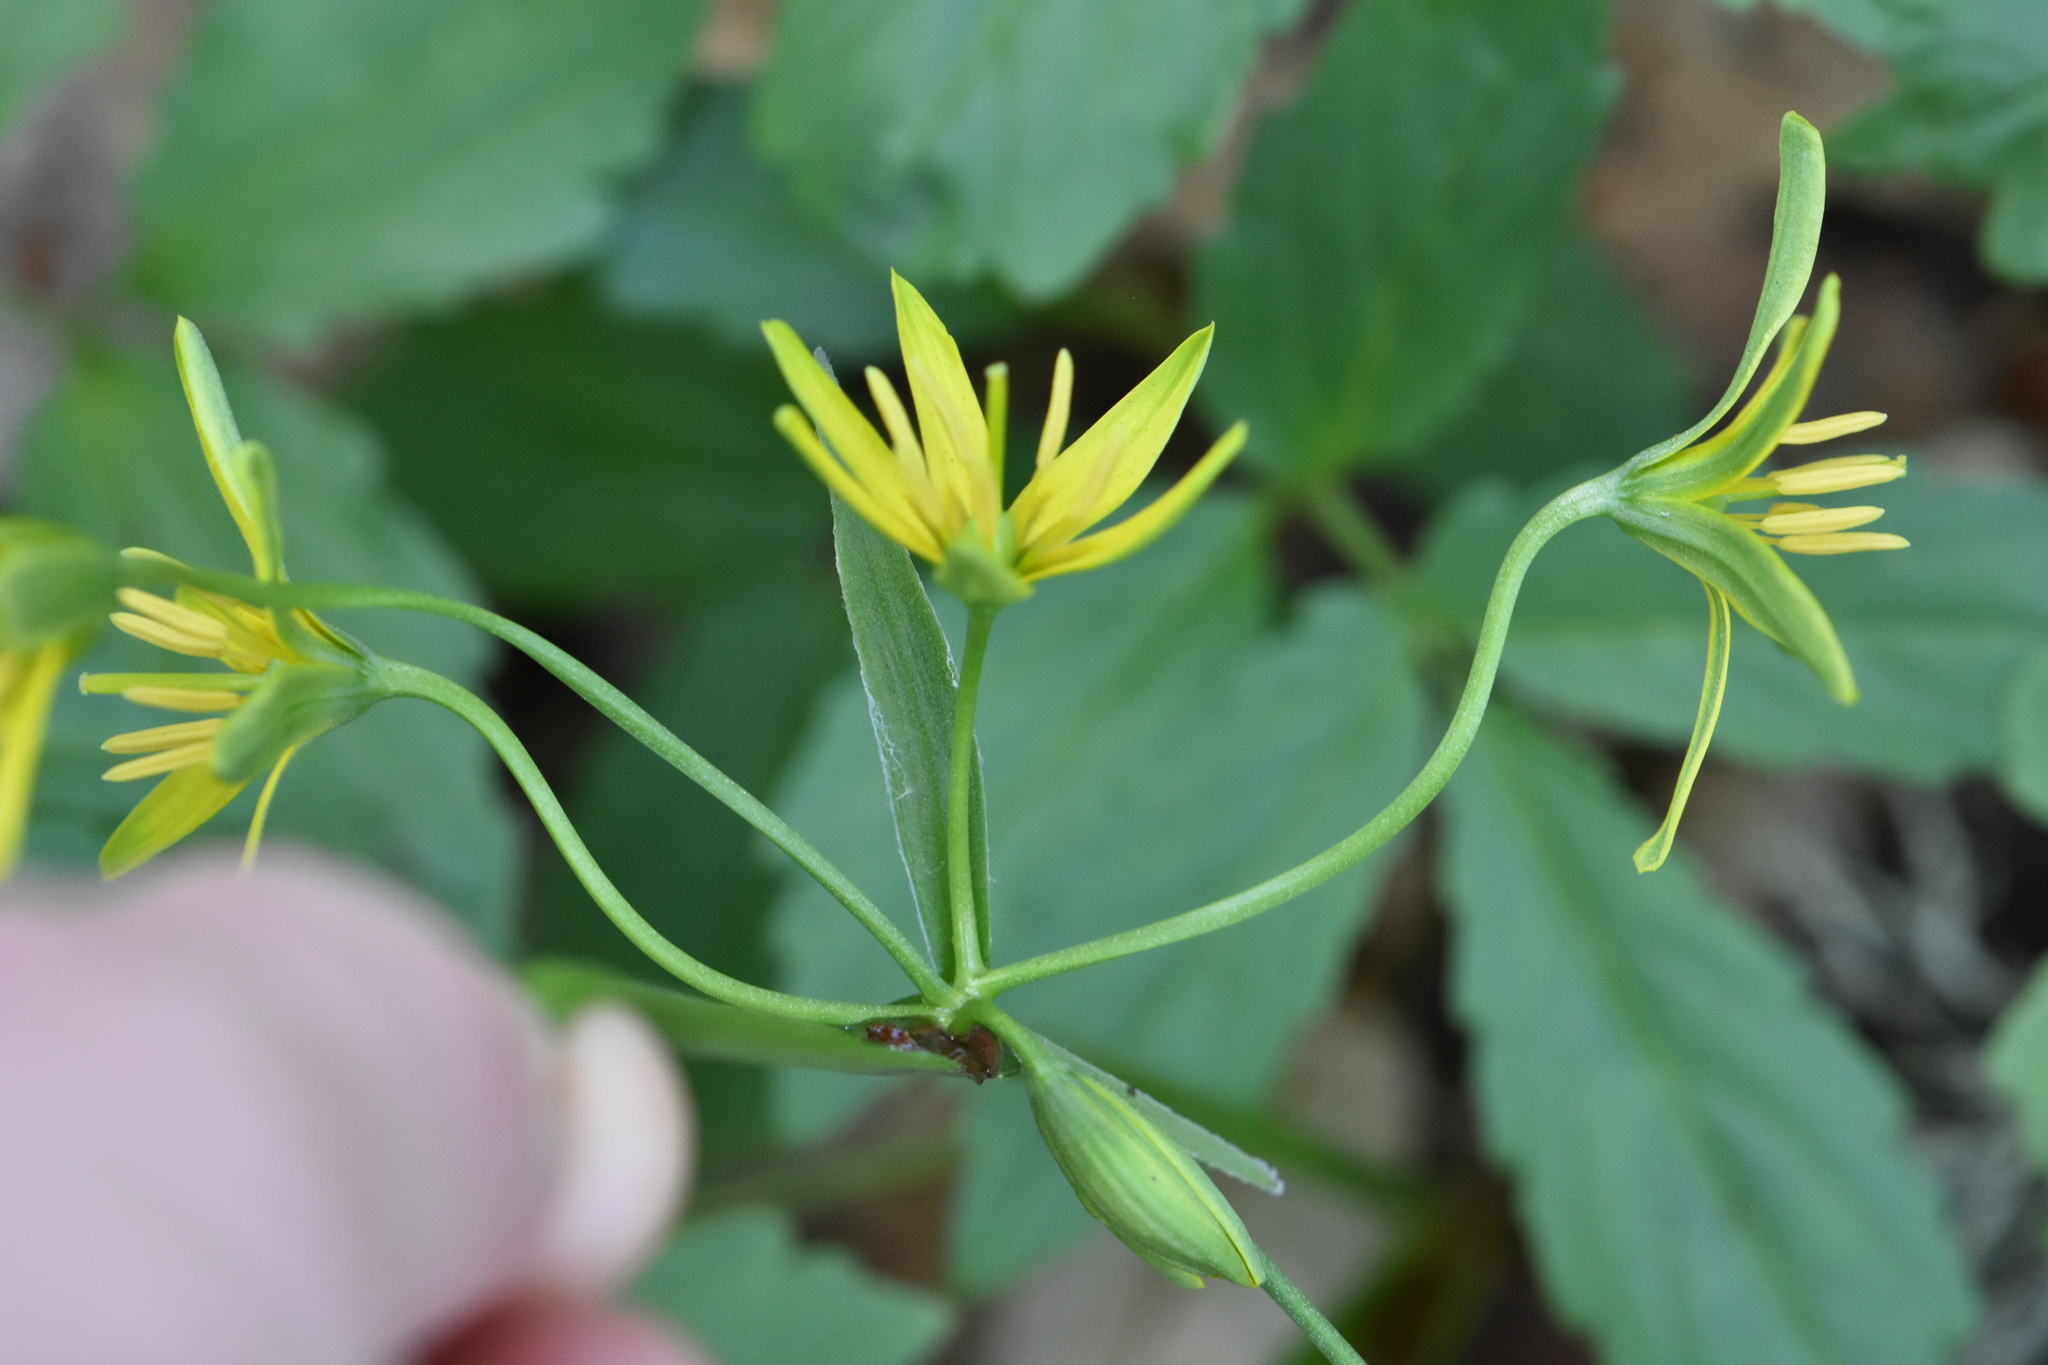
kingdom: Plantae
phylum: Tracheophyta
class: Liliopsida
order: Liliales
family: Liliaceae
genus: Gagea
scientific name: Gagea lutea
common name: Yellow star-of-bethlehem
